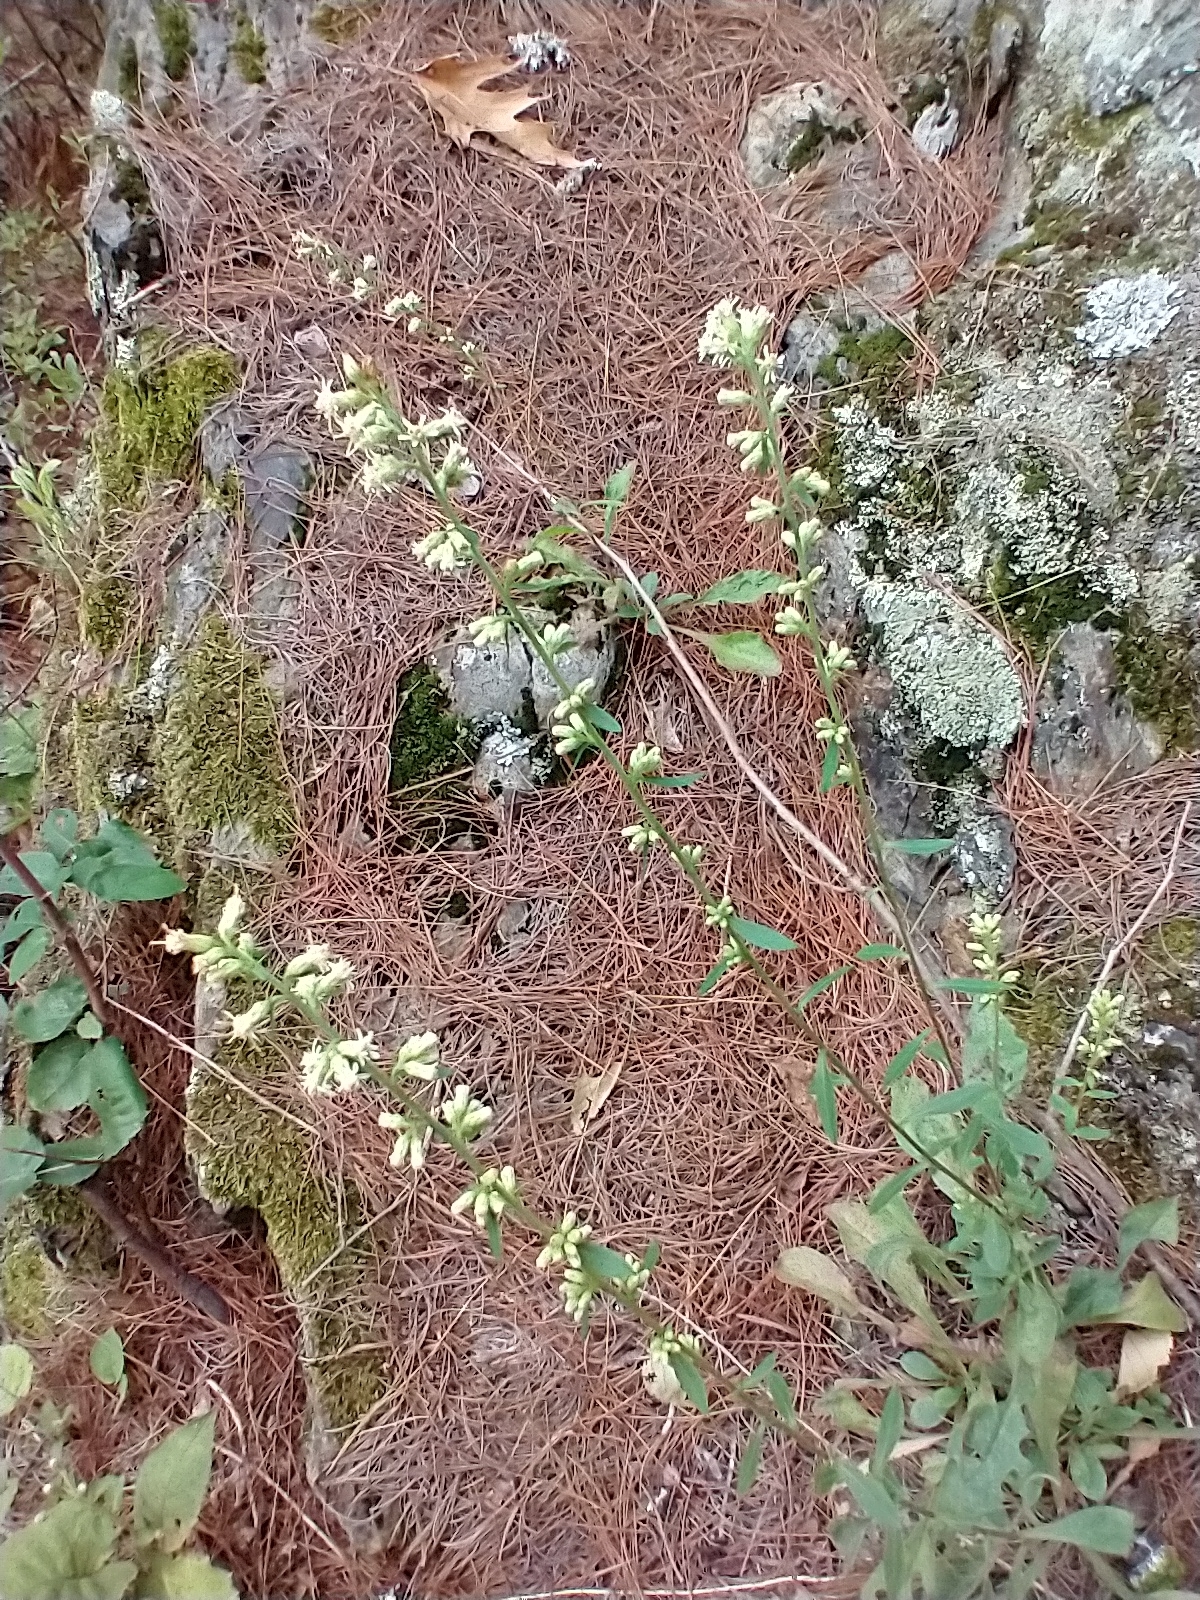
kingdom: Plantae
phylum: Tracheophyta
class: Magnoliopsida
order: Asterales
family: Asteraceae
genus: Solidago
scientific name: Solidago bicolor
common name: Silverrod
